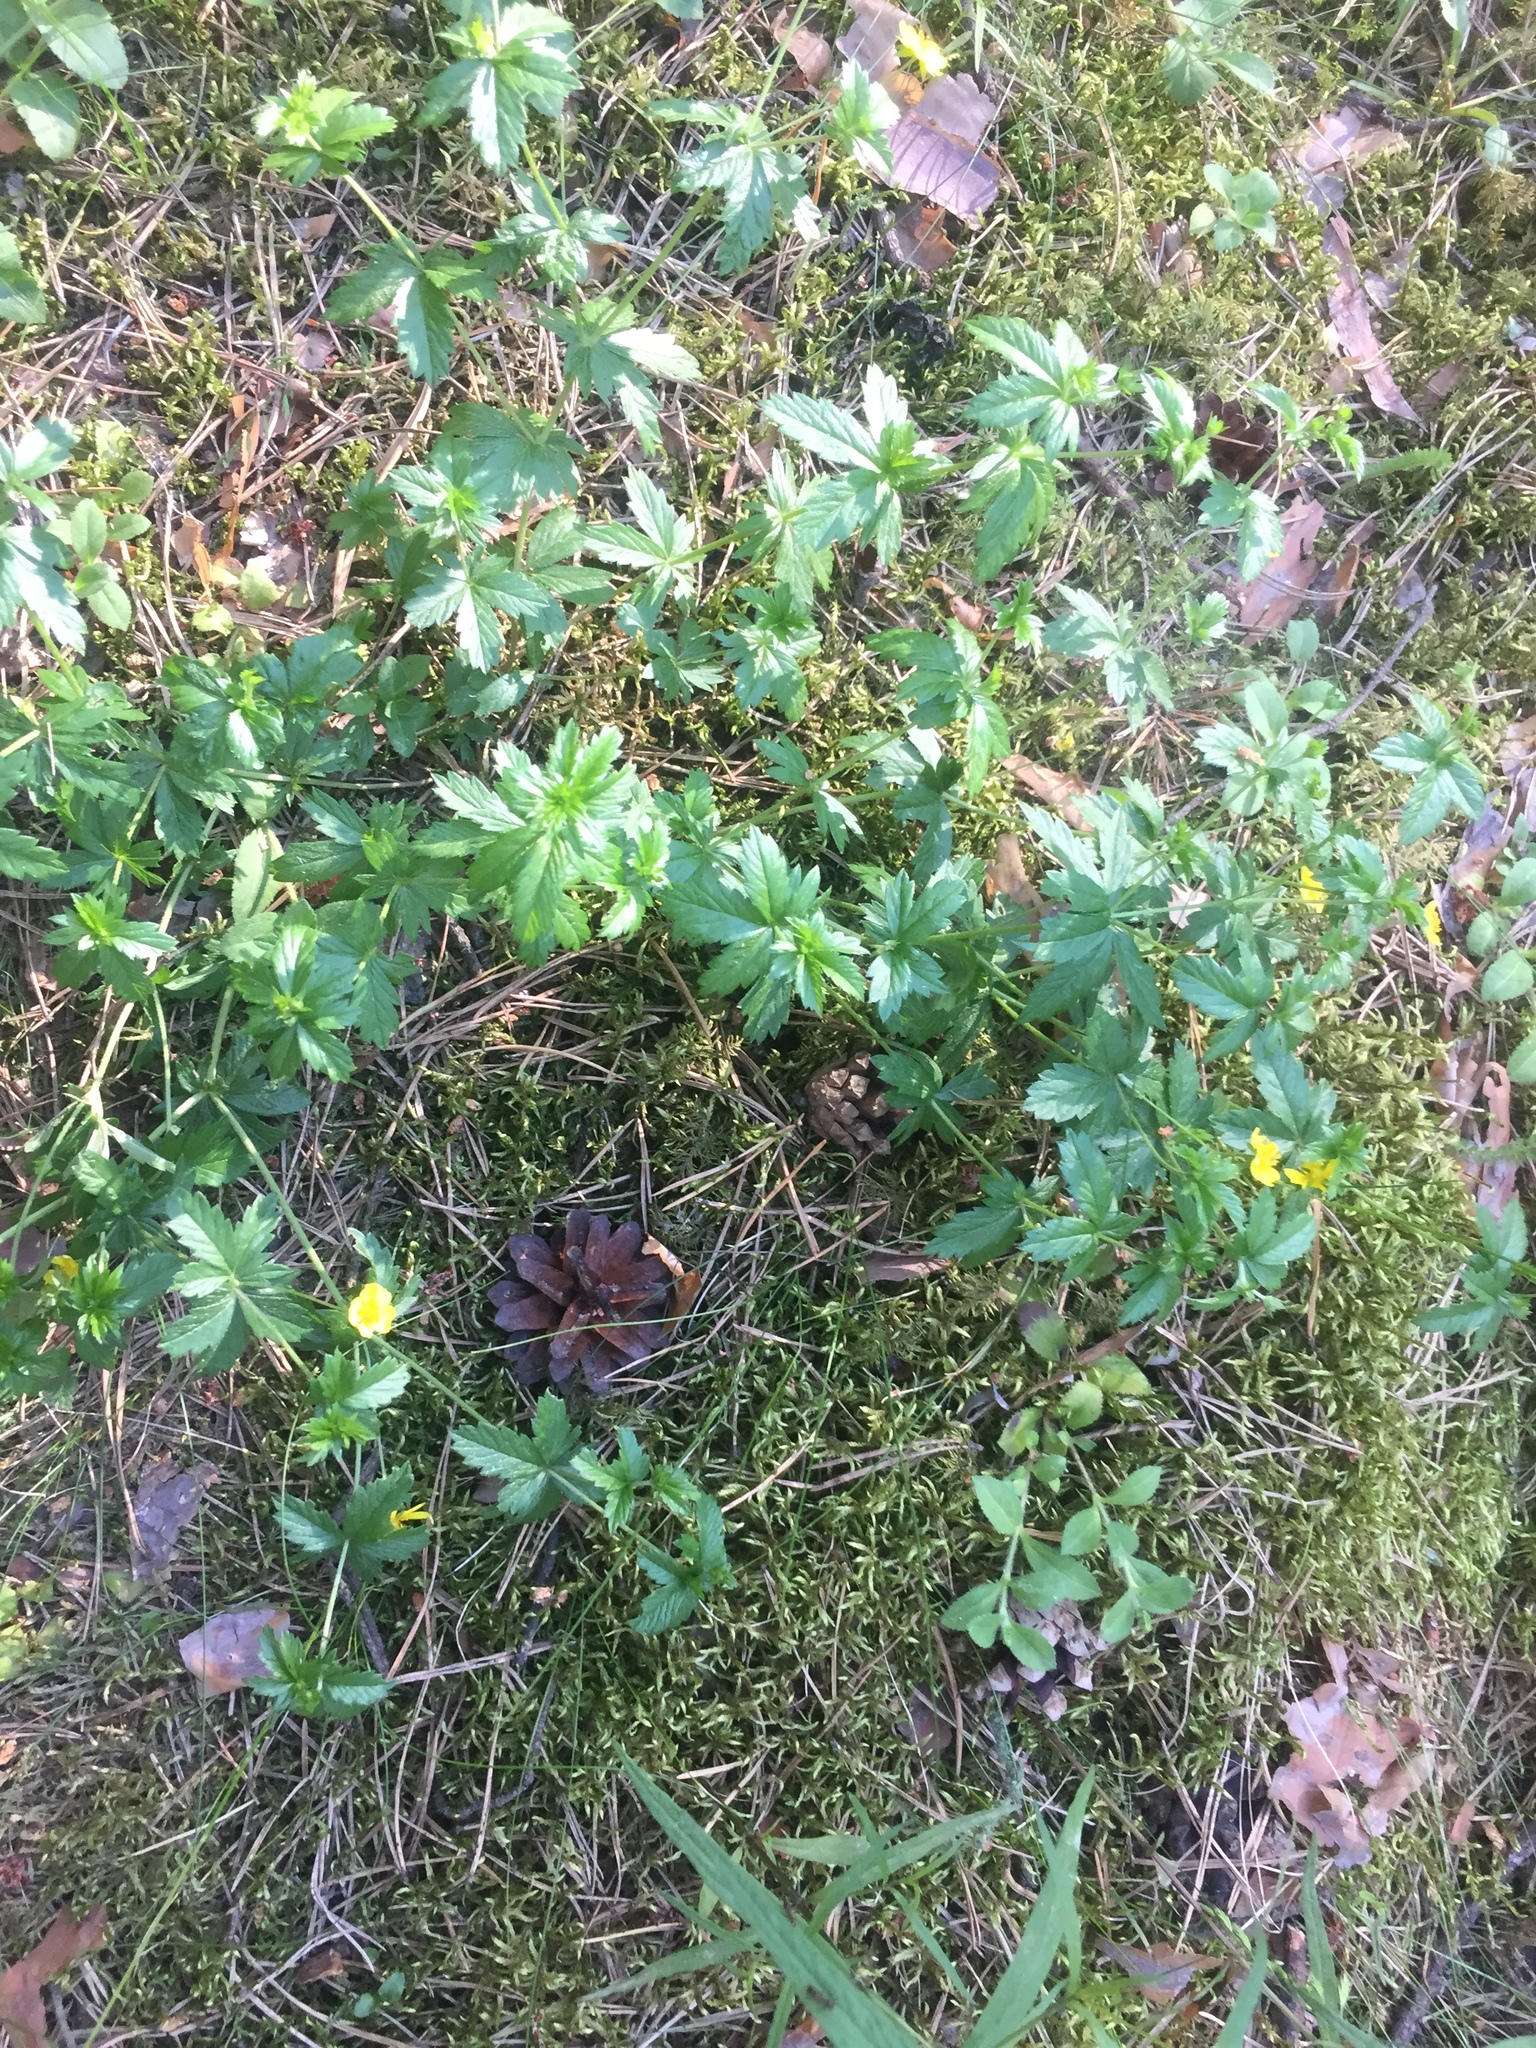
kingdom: Plantae
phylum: Tracheophyta
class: Magnoliopsida
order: Rosales
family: Rosaceae
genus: Potentilla
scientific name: Potentilla erecta
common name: Tormentil
